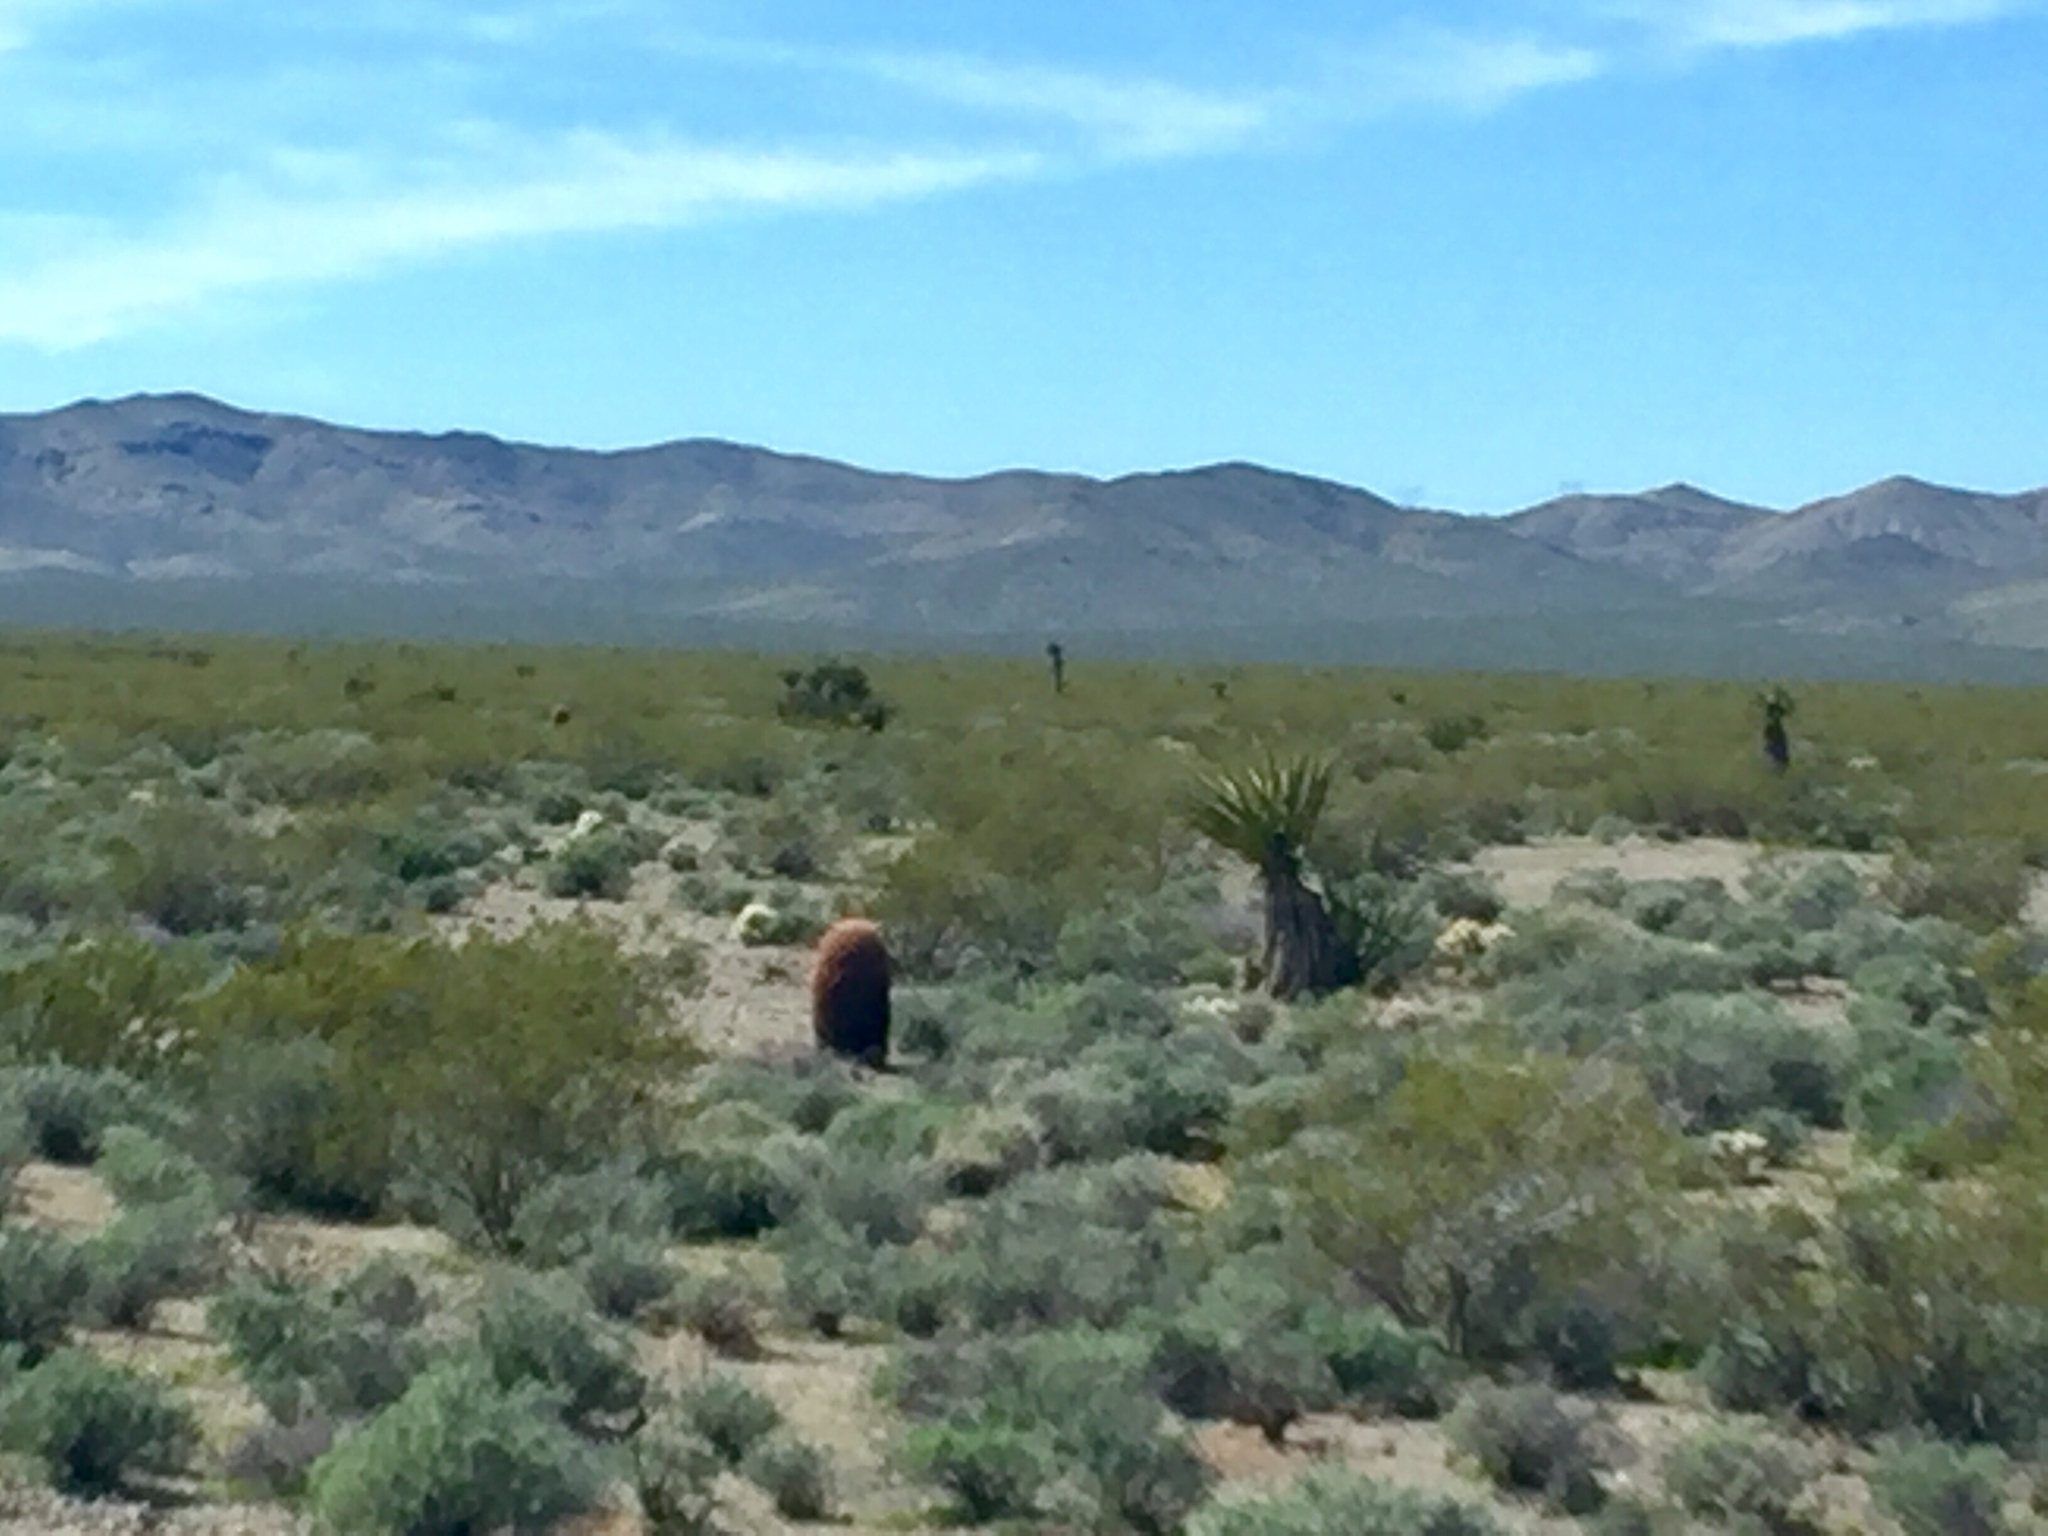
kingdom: Plantae
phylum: Tracheophyta
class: Liliopsida
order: Asparagales
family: Asparagaceae
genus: Yucca
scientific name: Yucca schidigera
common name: Mojave yucca
